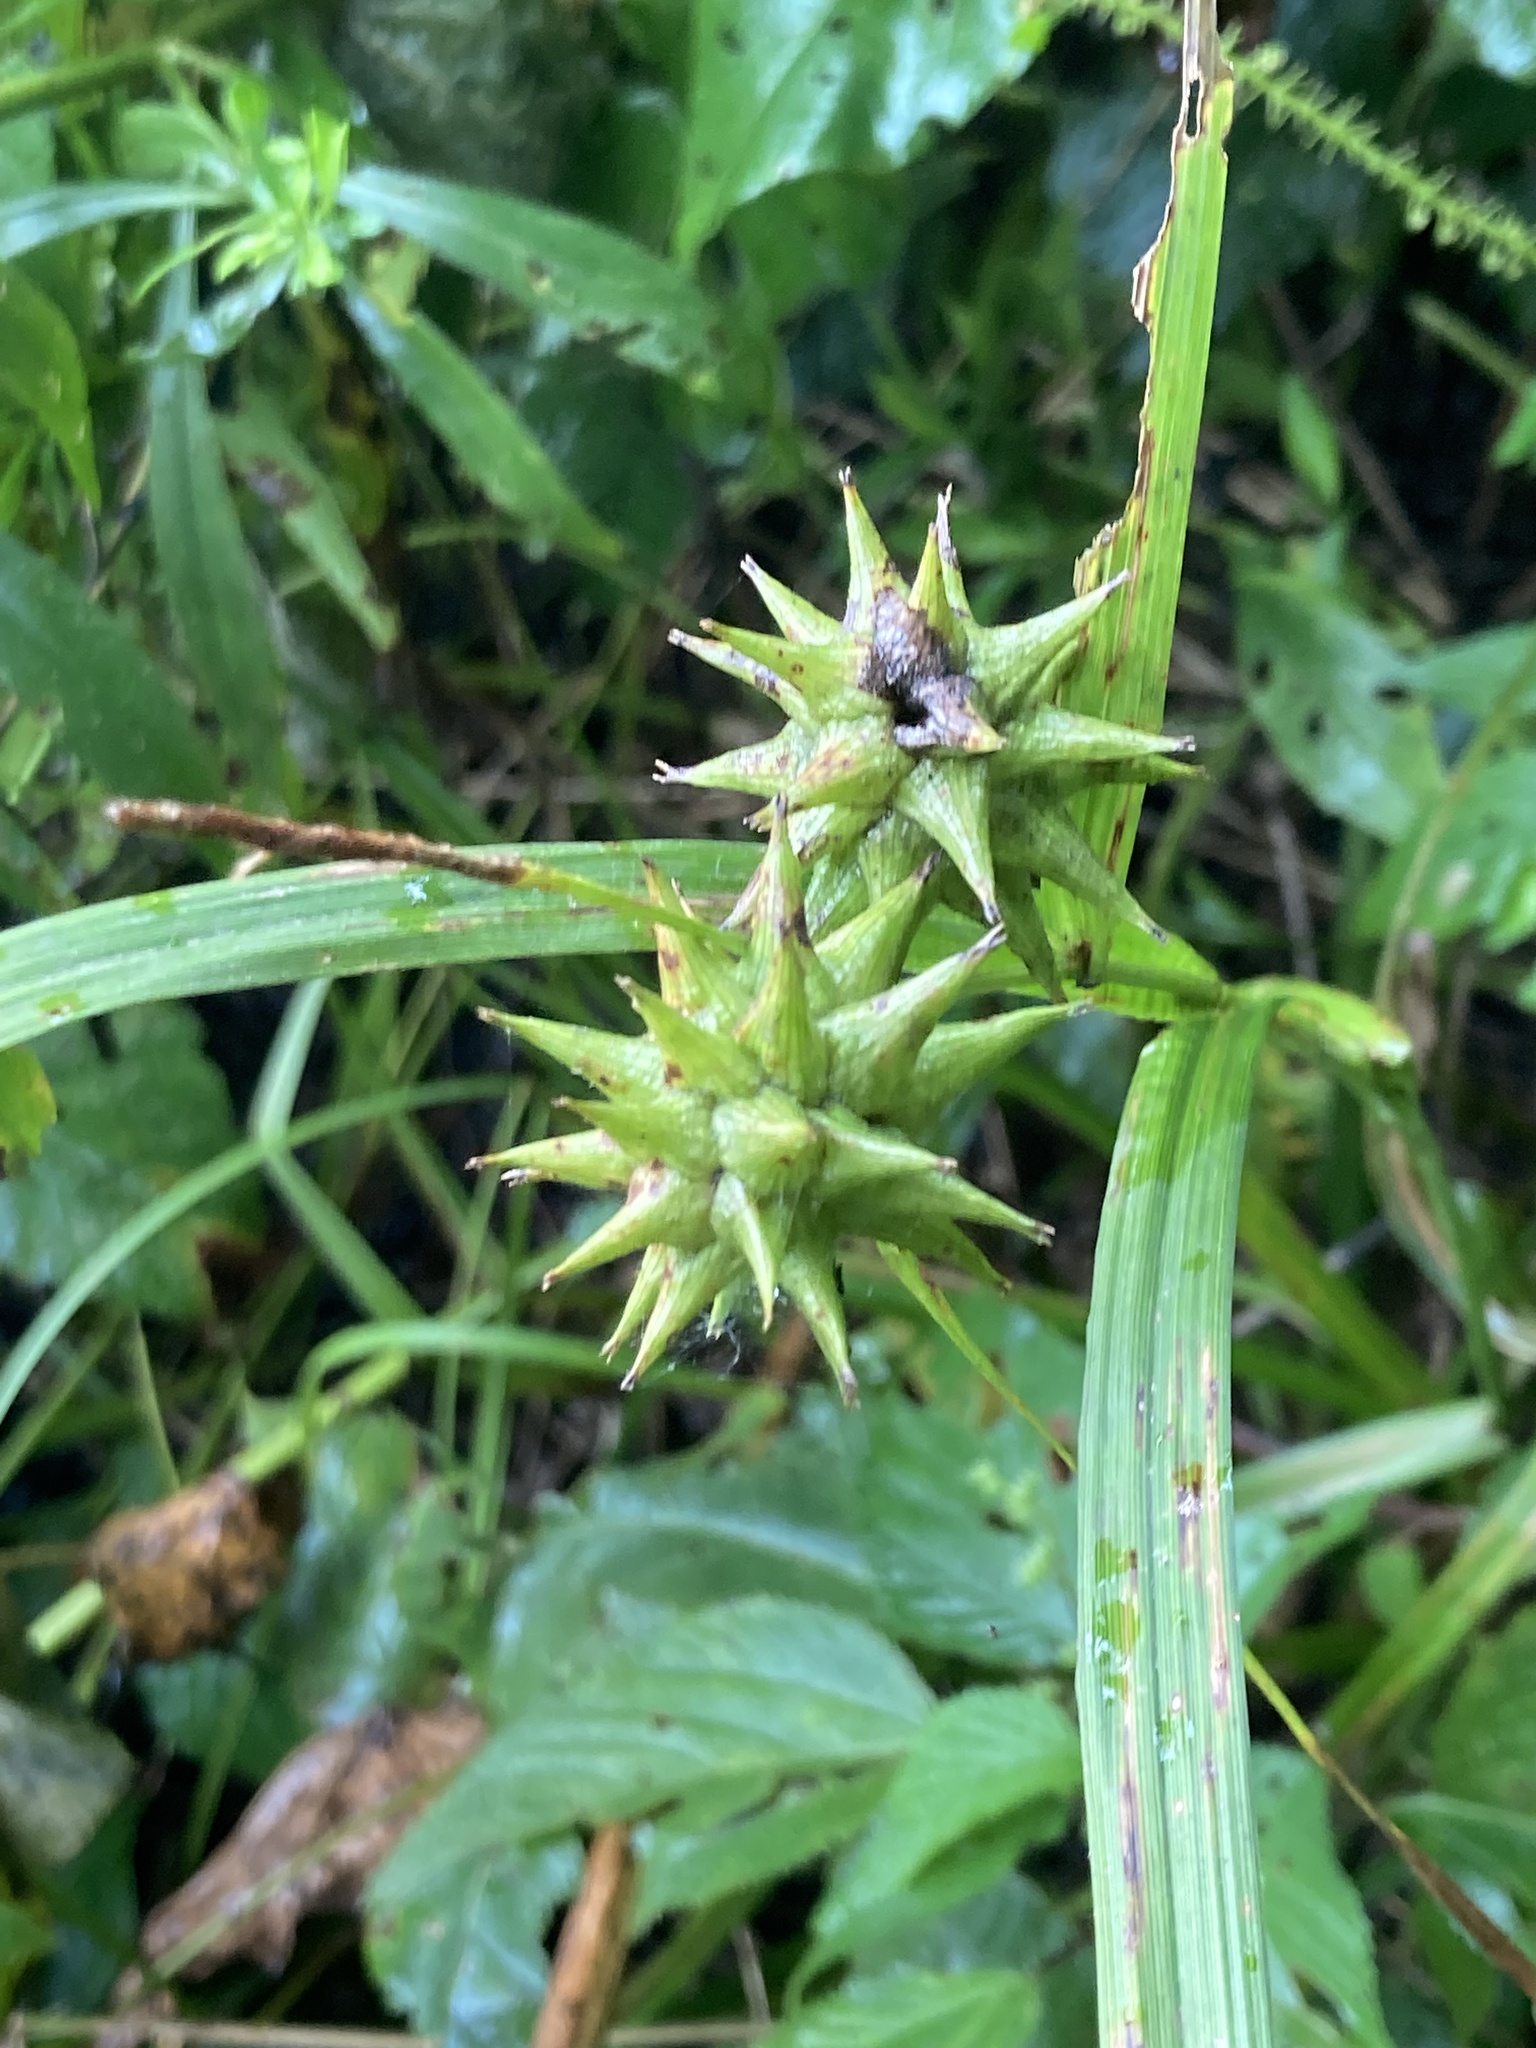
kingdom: Plantae
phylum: Tracheophyta
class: Liliopsida
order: Poales
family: Cyperaceae
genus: Carex
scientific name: Carex grayi
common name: Asa gray's sedge
